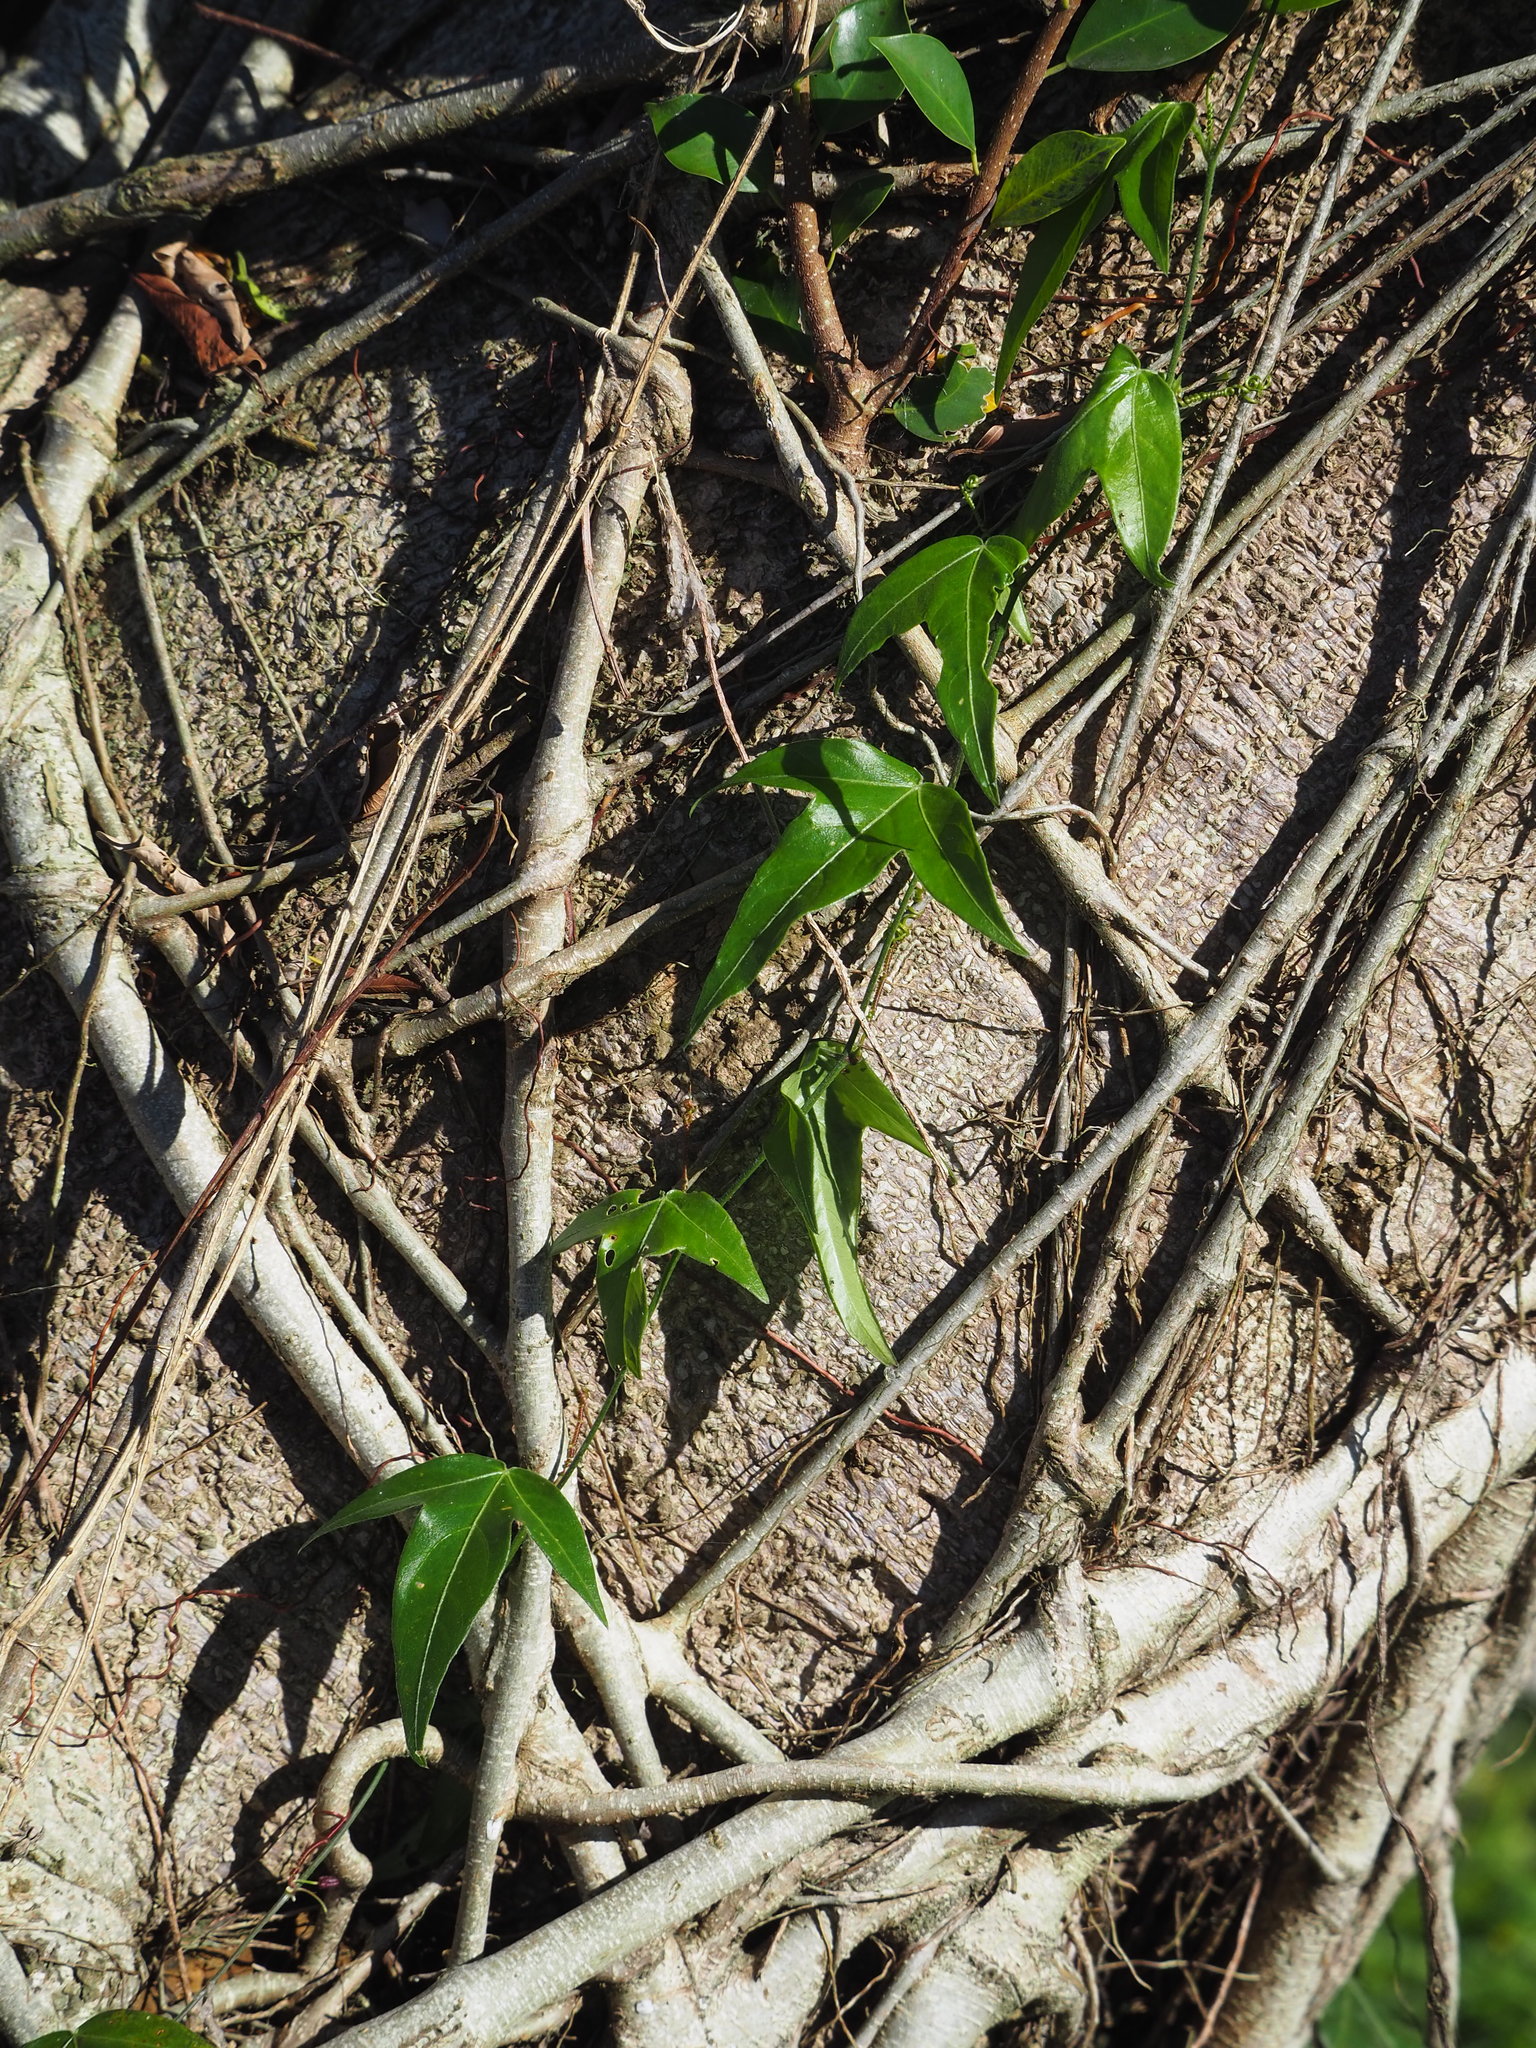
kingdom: Plantae
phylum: Tracheophyta
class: Magnoliopsida
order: Malpighiales
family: Passifloraceae
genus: Passiflora
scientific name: Passiflora suberosa
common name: Wild passionfruit
